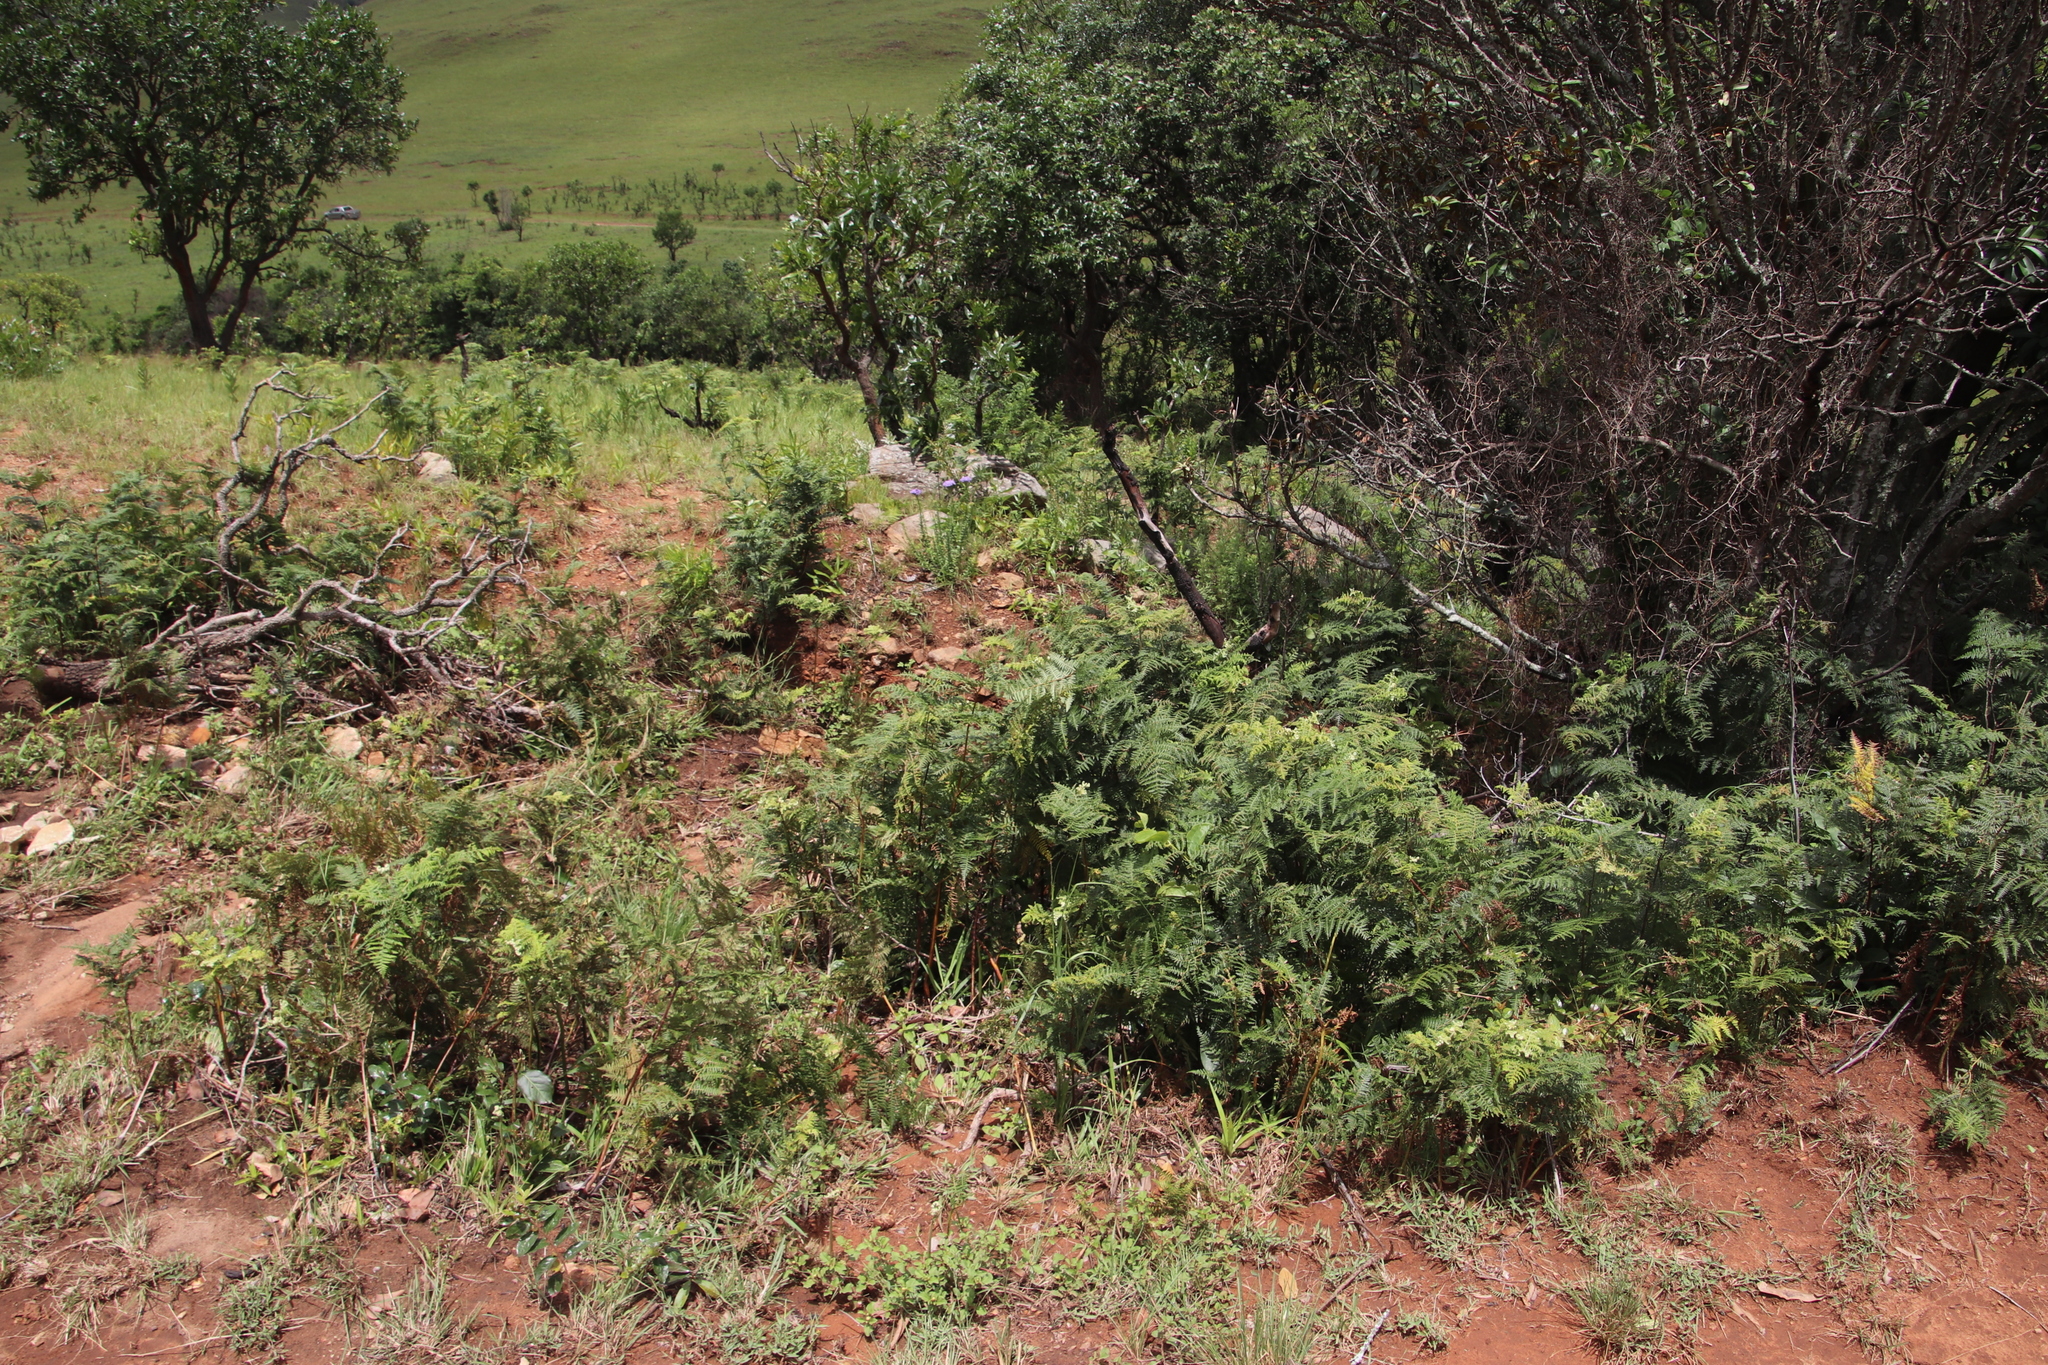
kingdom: Plantae
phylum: Tracheophyta
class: Polypodiopsida
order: Polypodiales
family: Dennstaedtiaceae
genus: Pteridium
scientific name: Pteridium aquilinum
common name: Bracken
